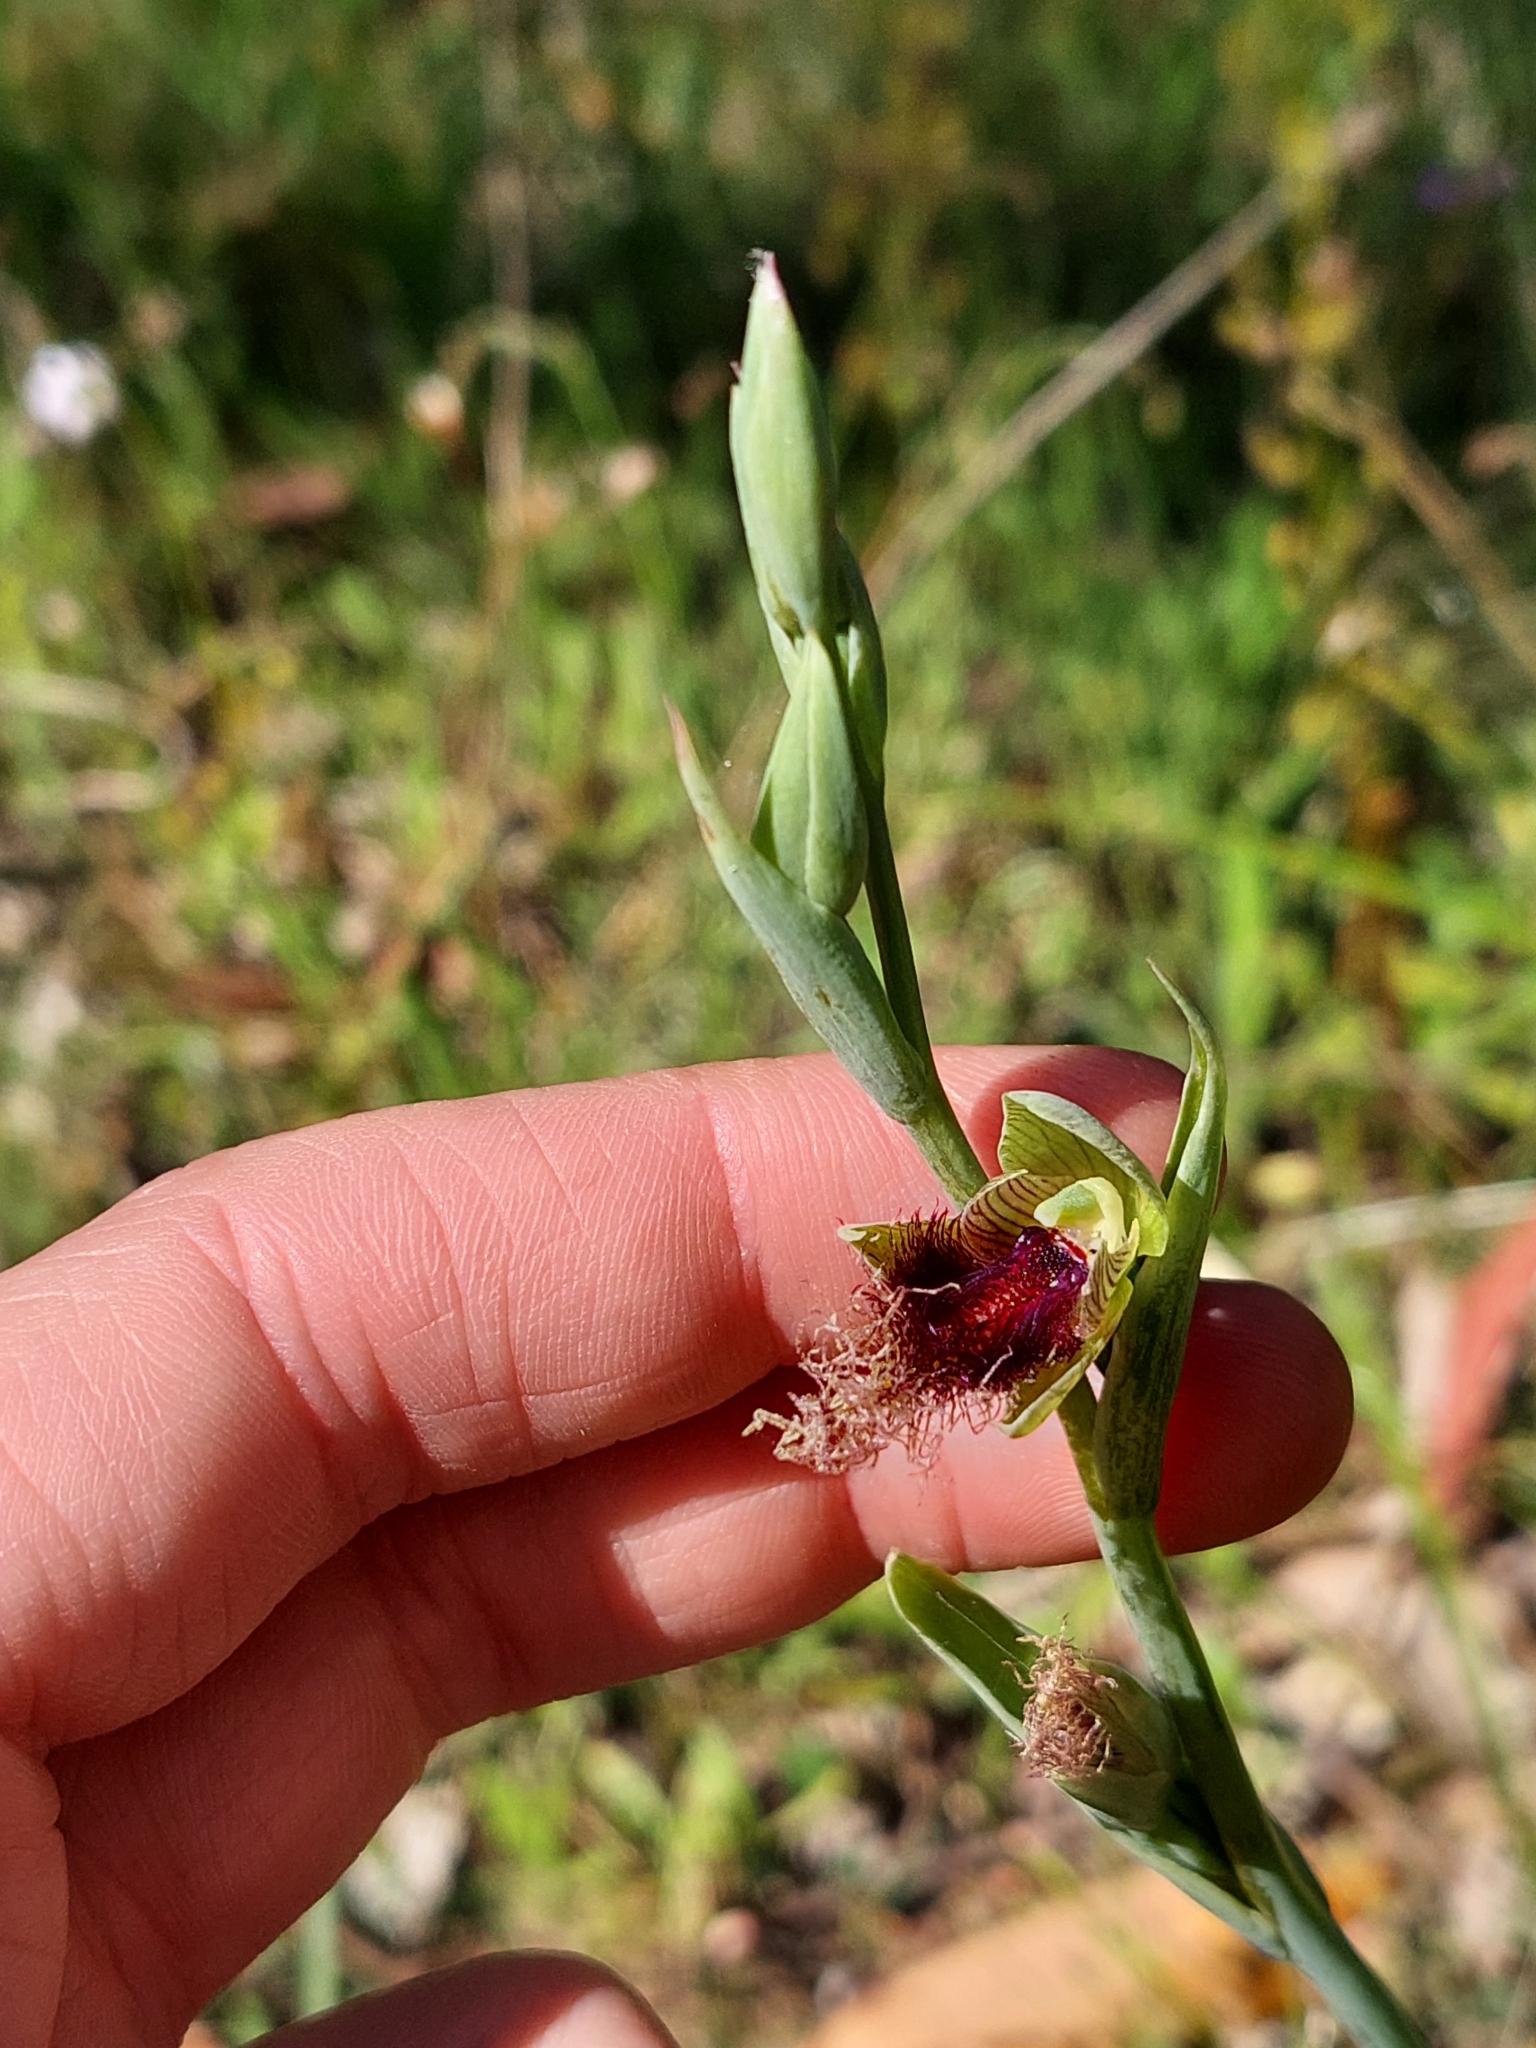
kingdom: Plantae
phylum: Tracheophyta
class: Liliopsida
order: Asparagales
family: Orchidaceae
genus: Calochilus
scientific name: Calochilus robertsonii
